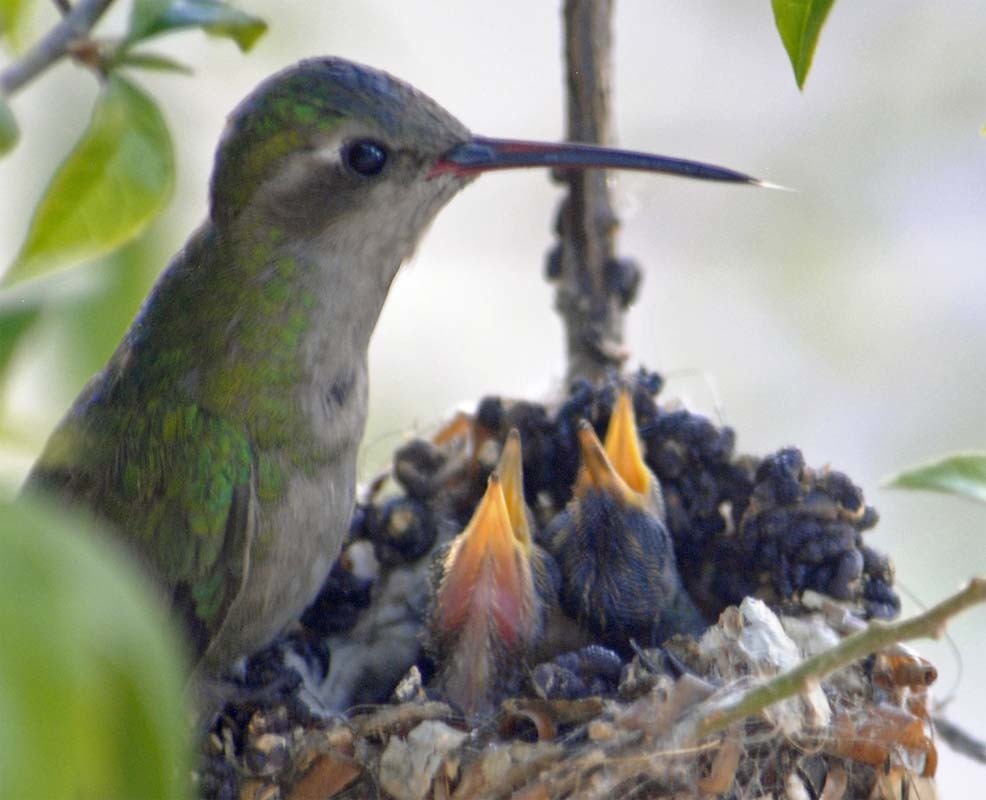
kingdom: Animalia
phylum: Chordata
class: Aves
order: Apodiformes
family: Trochilidae
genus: Cynanthus
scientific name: Cynanthus latirostris
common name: Broad-billed hummingbird
